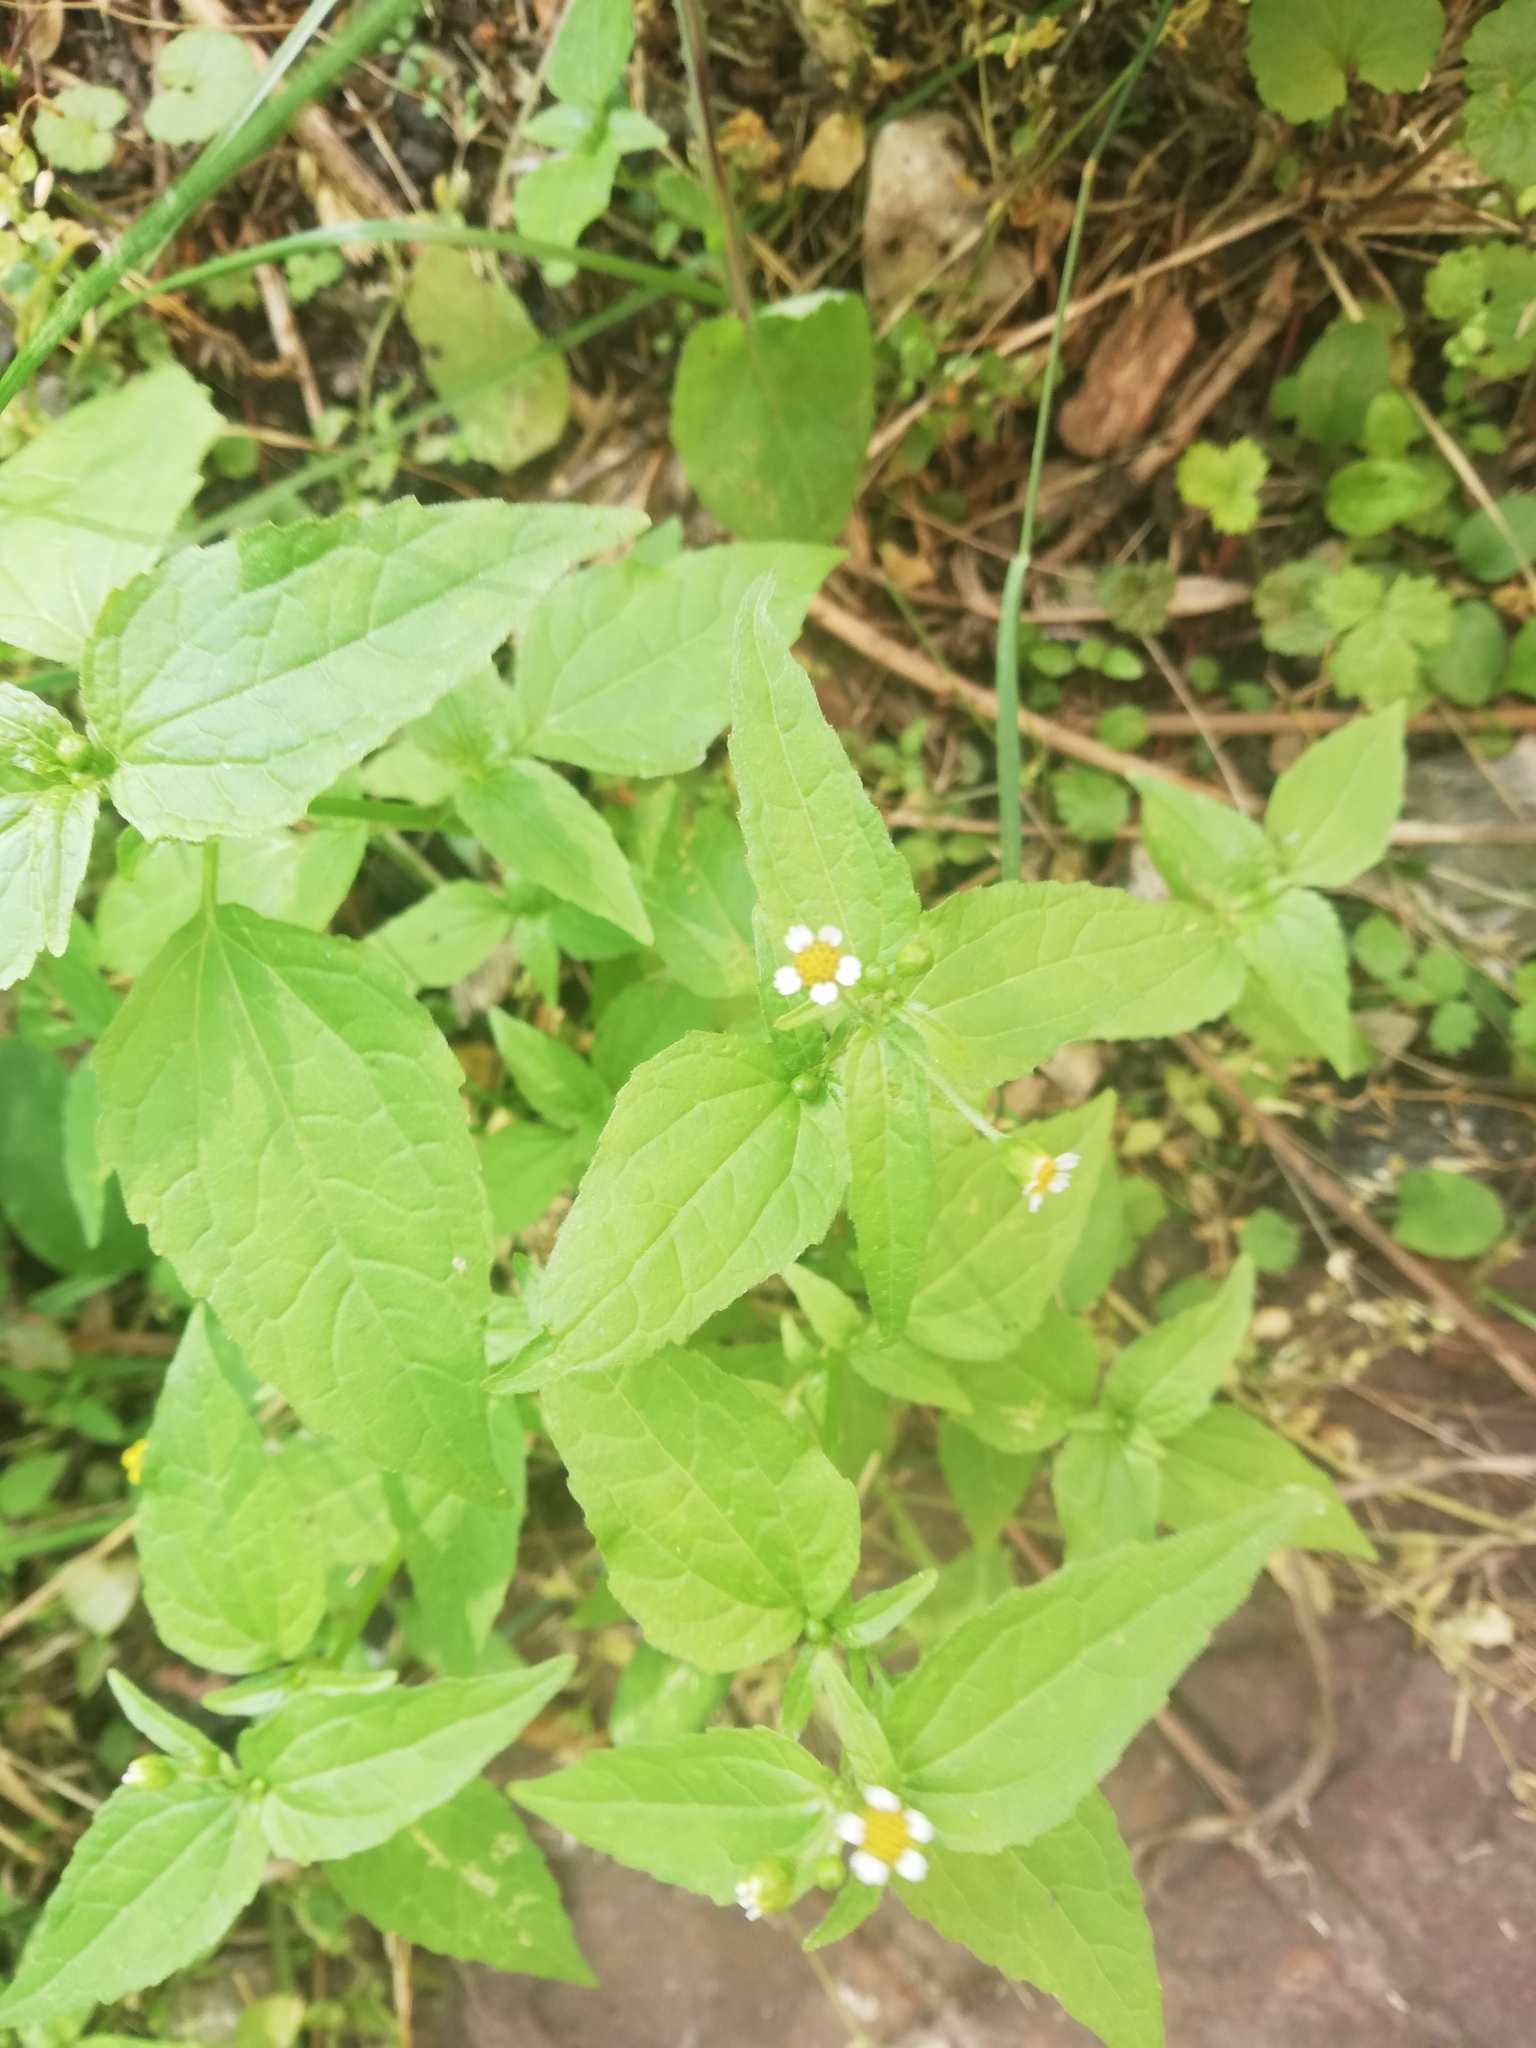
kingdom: Plantae
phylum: Tracheophyta
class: Magnoliopsida
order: Asterales
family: Asteraceae
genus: Galinsoga
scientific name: Galinsoga parviflora
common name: Gallant soldier
